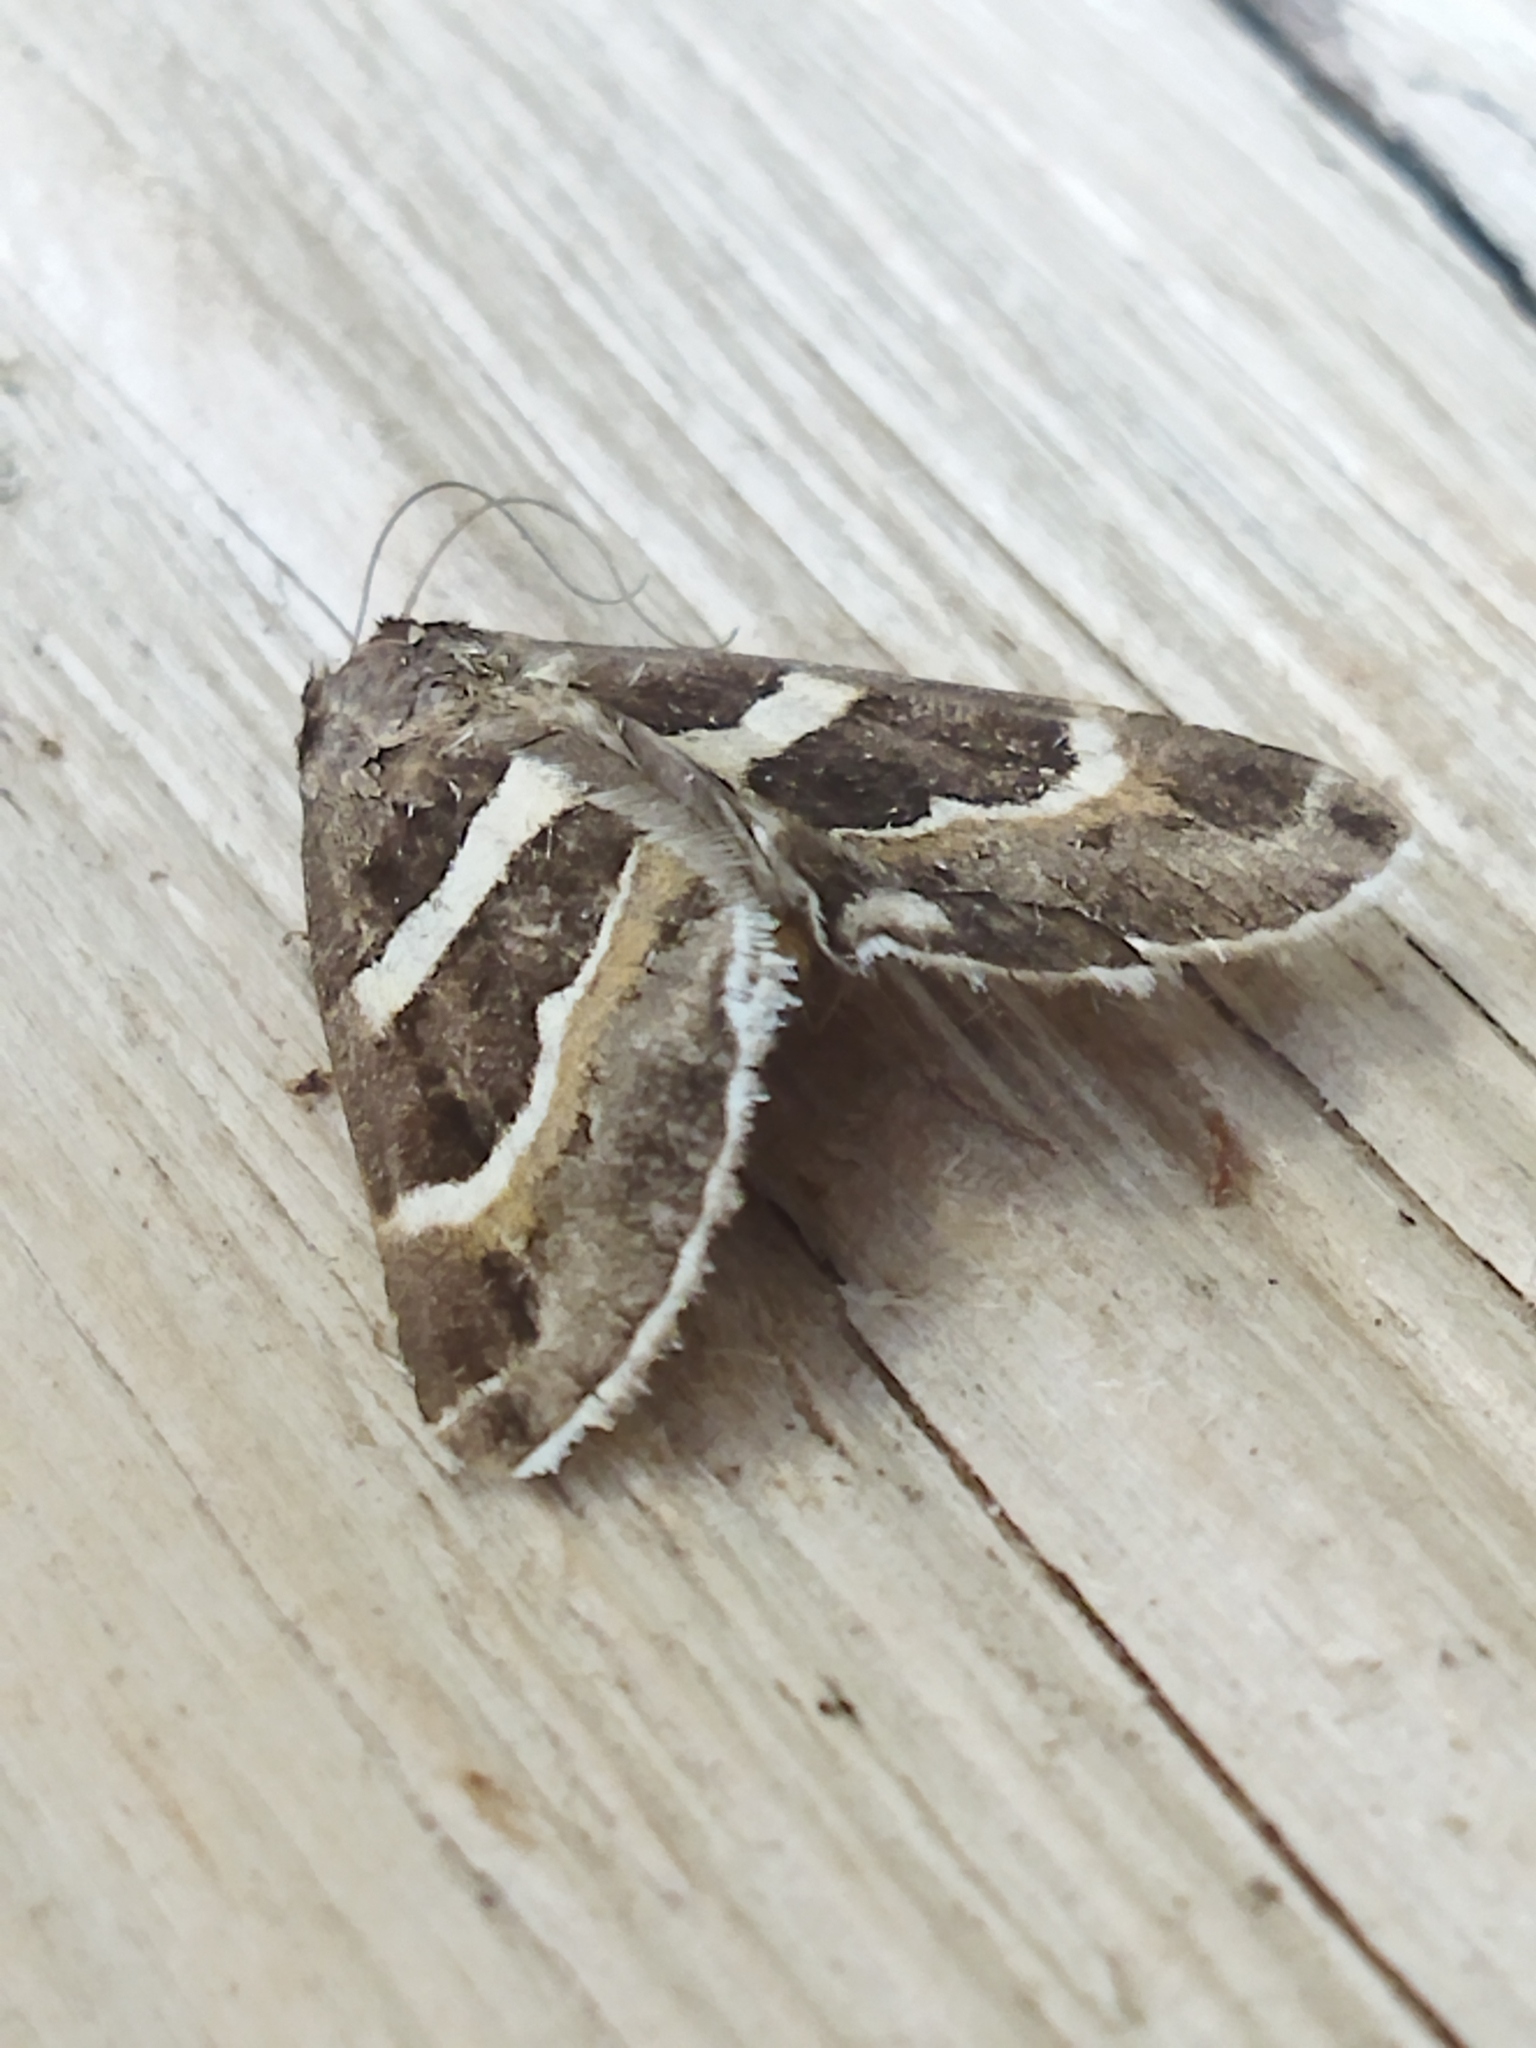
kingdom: Animalia
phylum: Arthropoda
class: Insecta
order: Lepidoptera
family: Erebidae
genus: Grammodes
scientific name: Grammodes stolida
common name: Geometrician
